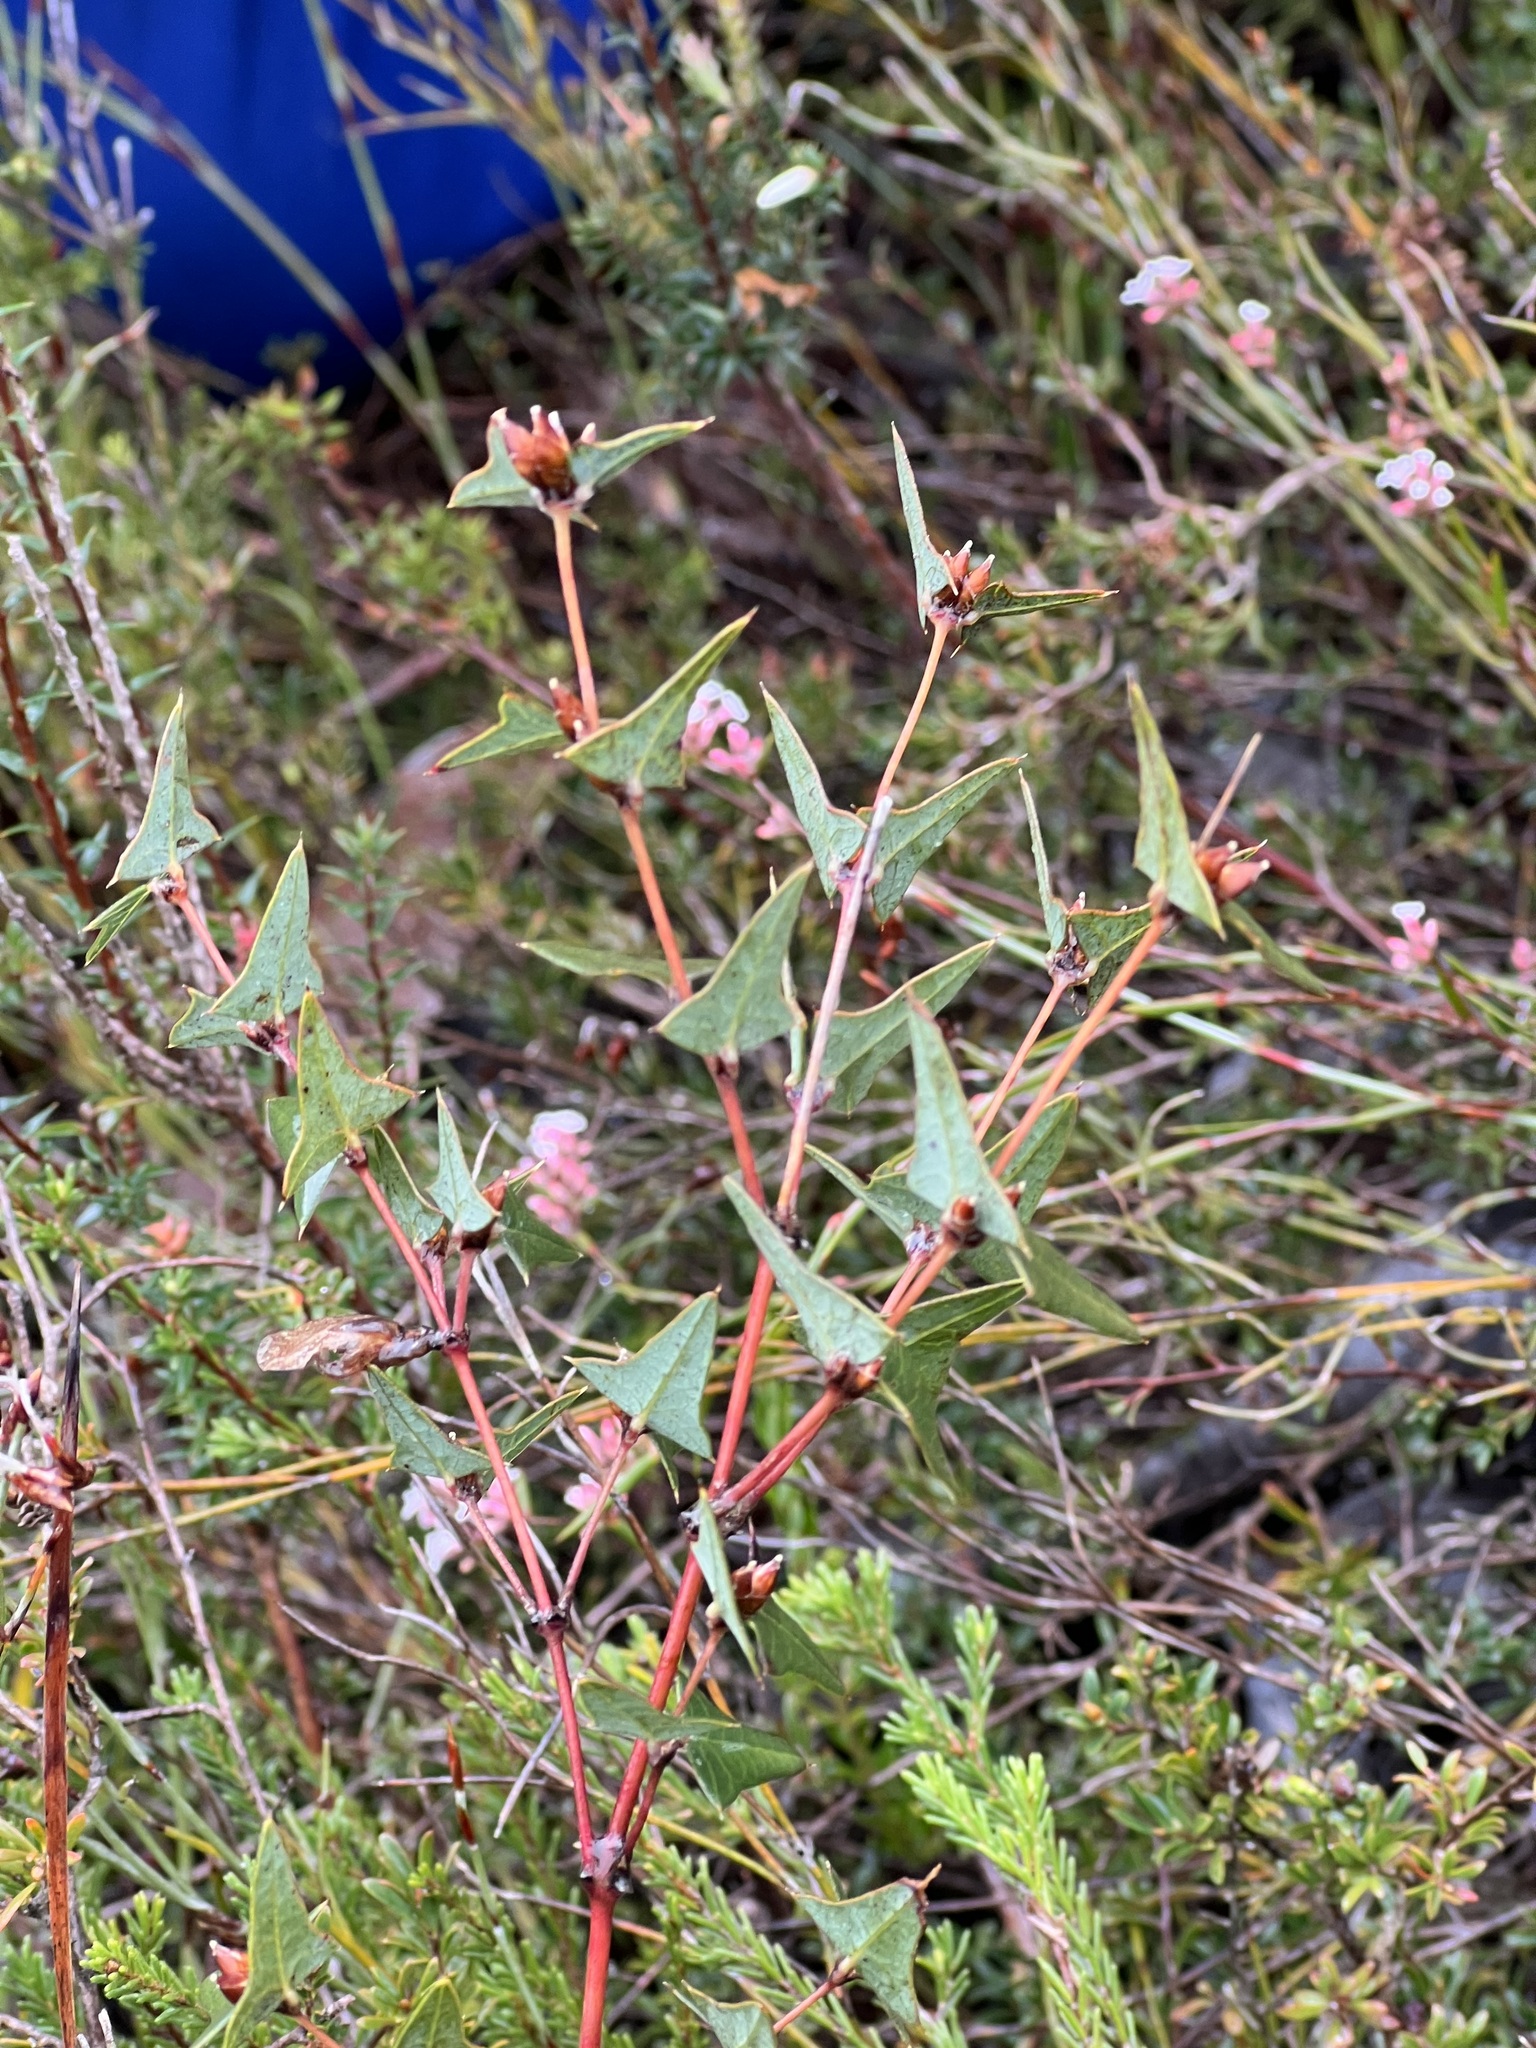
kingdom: Plantae
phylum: Tracheophyta
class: Magnoliopsida
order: Fabales
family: Fabaceae
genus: Platylobium
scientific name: Platylobium obtusangulum
